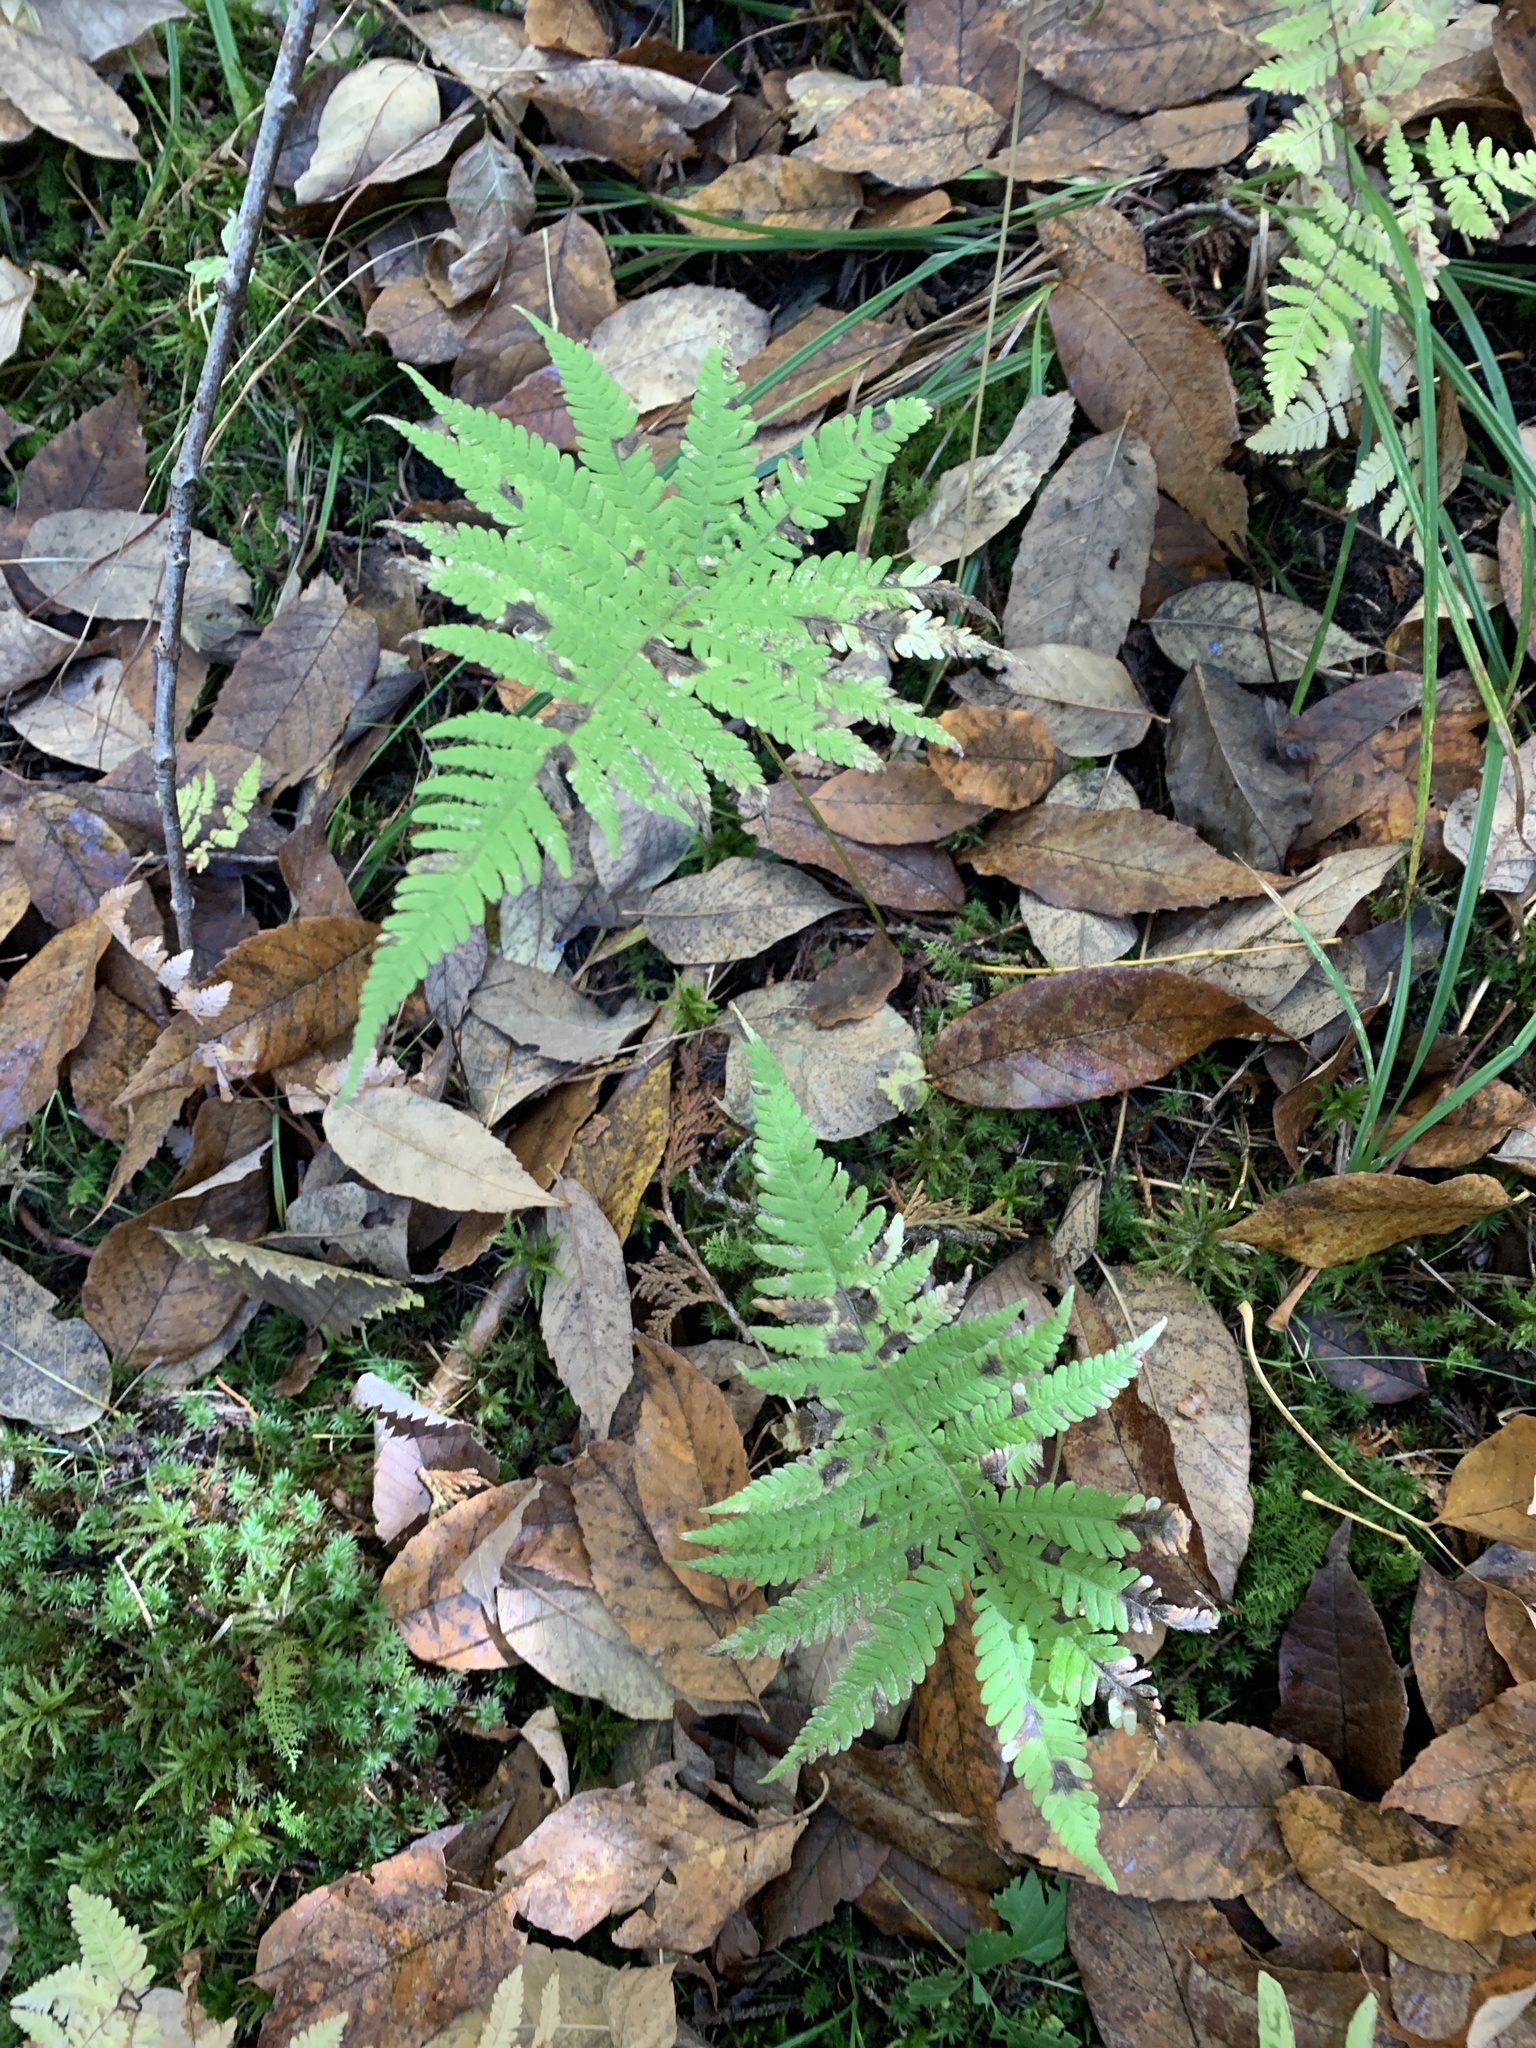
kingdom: Plantae
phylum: Tracheophyta
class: Polypodiopsida
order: Polypodiales
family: Thelypteridaceae
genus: Phegopteris
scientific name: Phegopteris connectilis
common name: Beech fern
